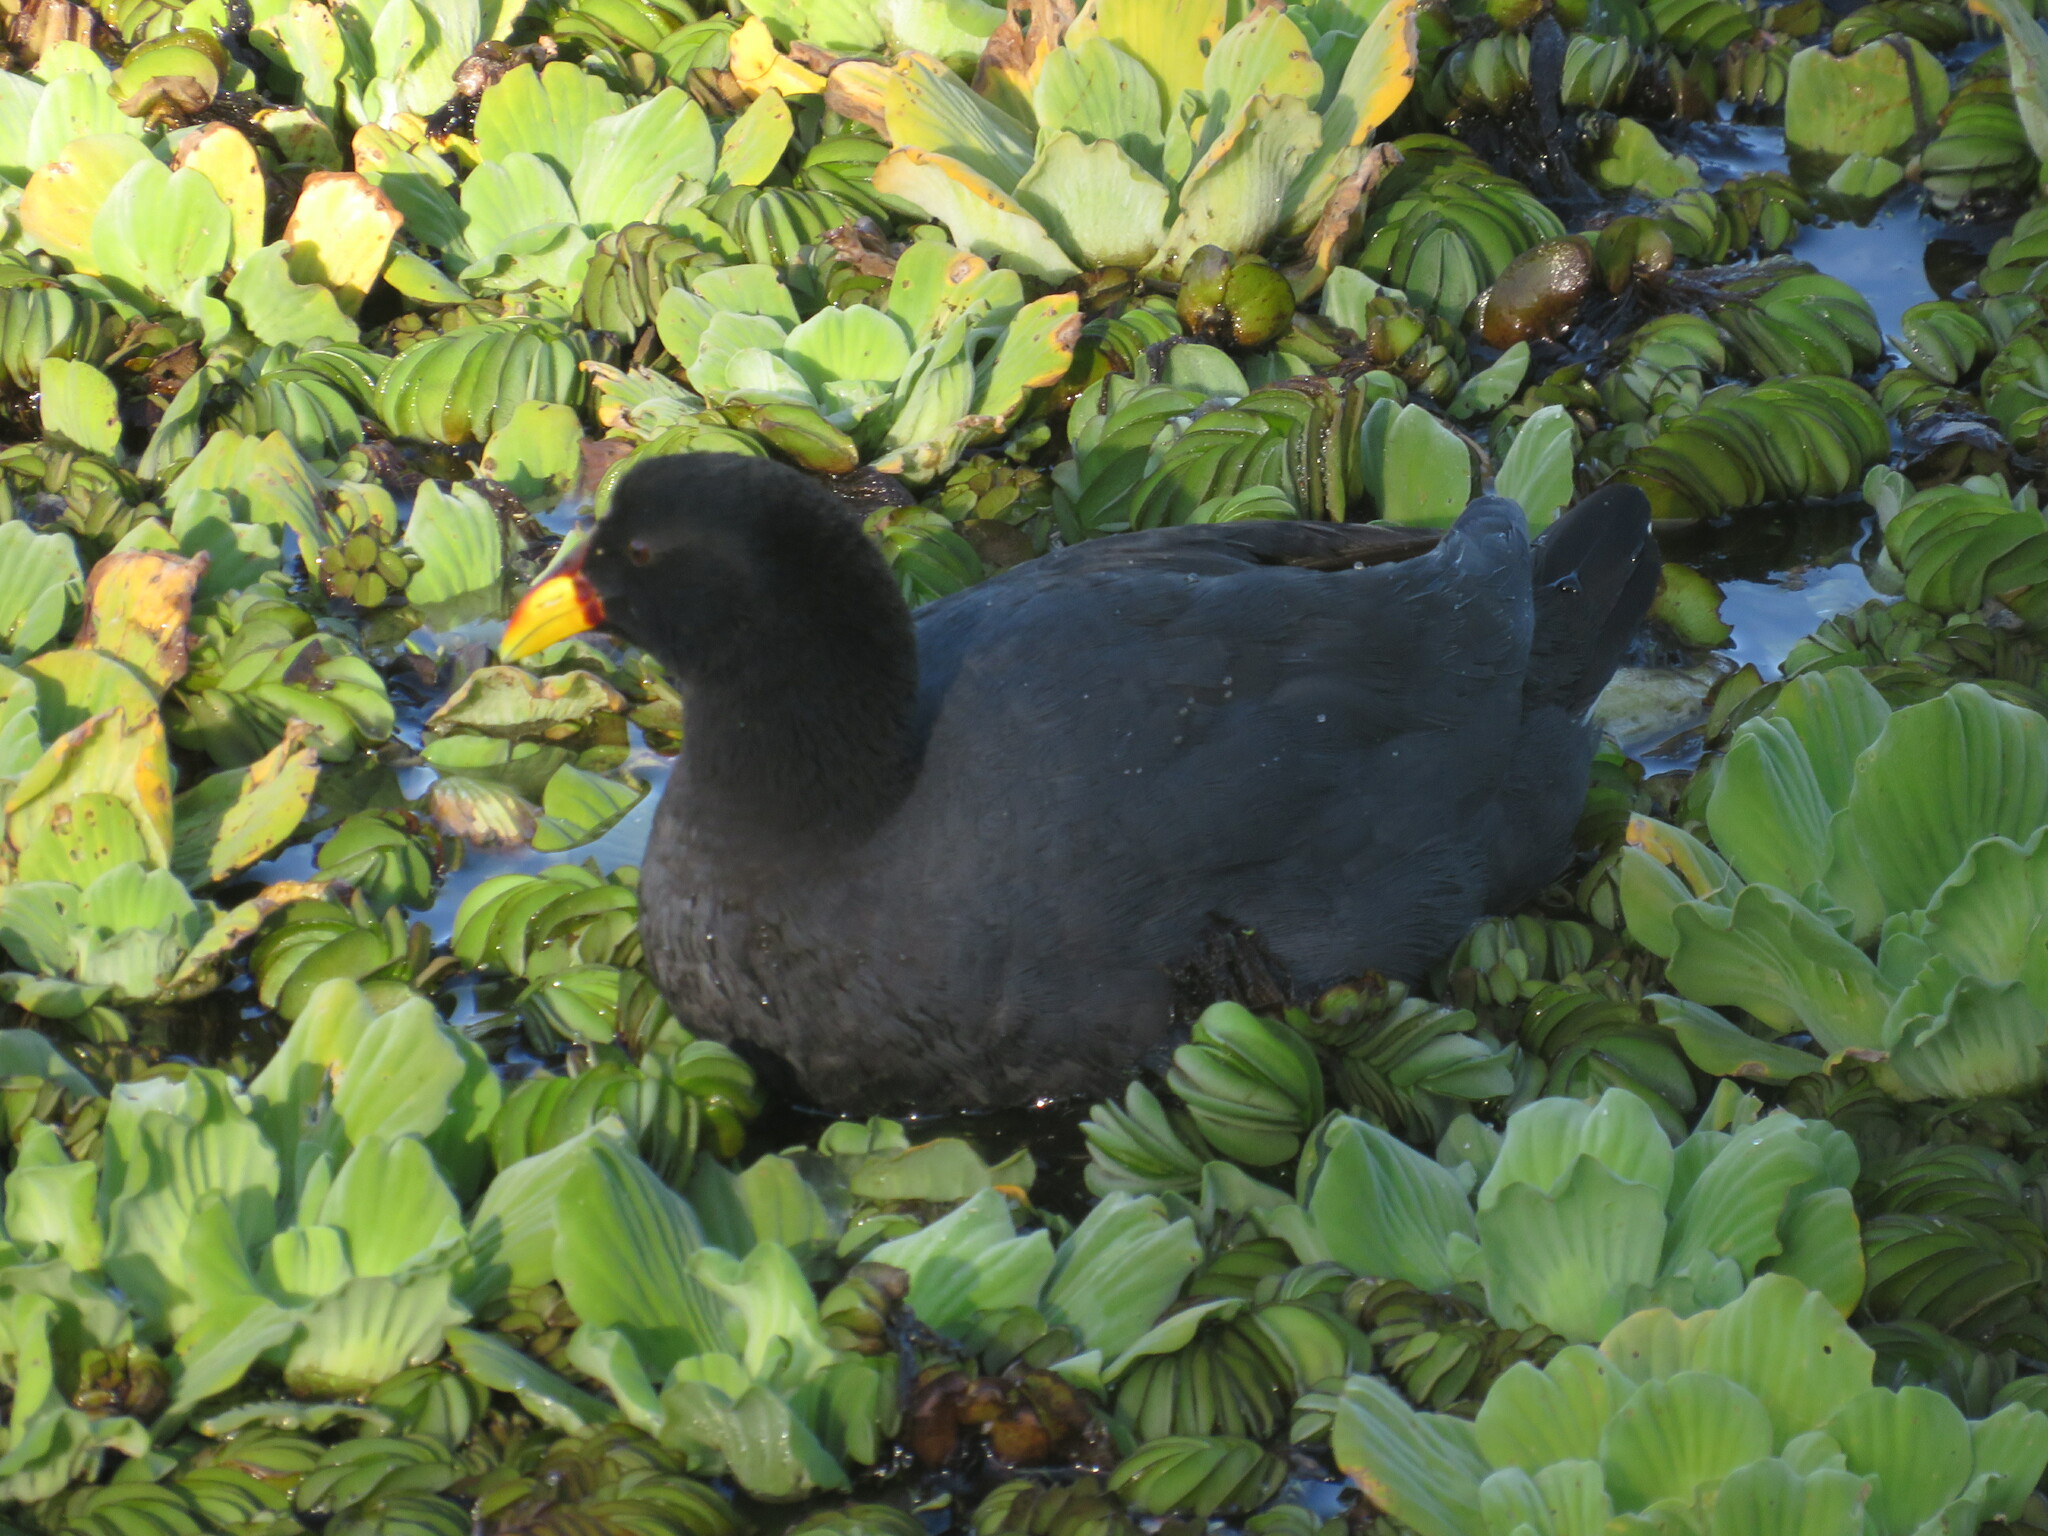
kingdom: Animalia
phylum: Chordata
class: Aves
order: Gruiformes
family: Rallidae
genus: Fulica
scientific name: Fulica rufifrons
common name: Red-fronted coot
